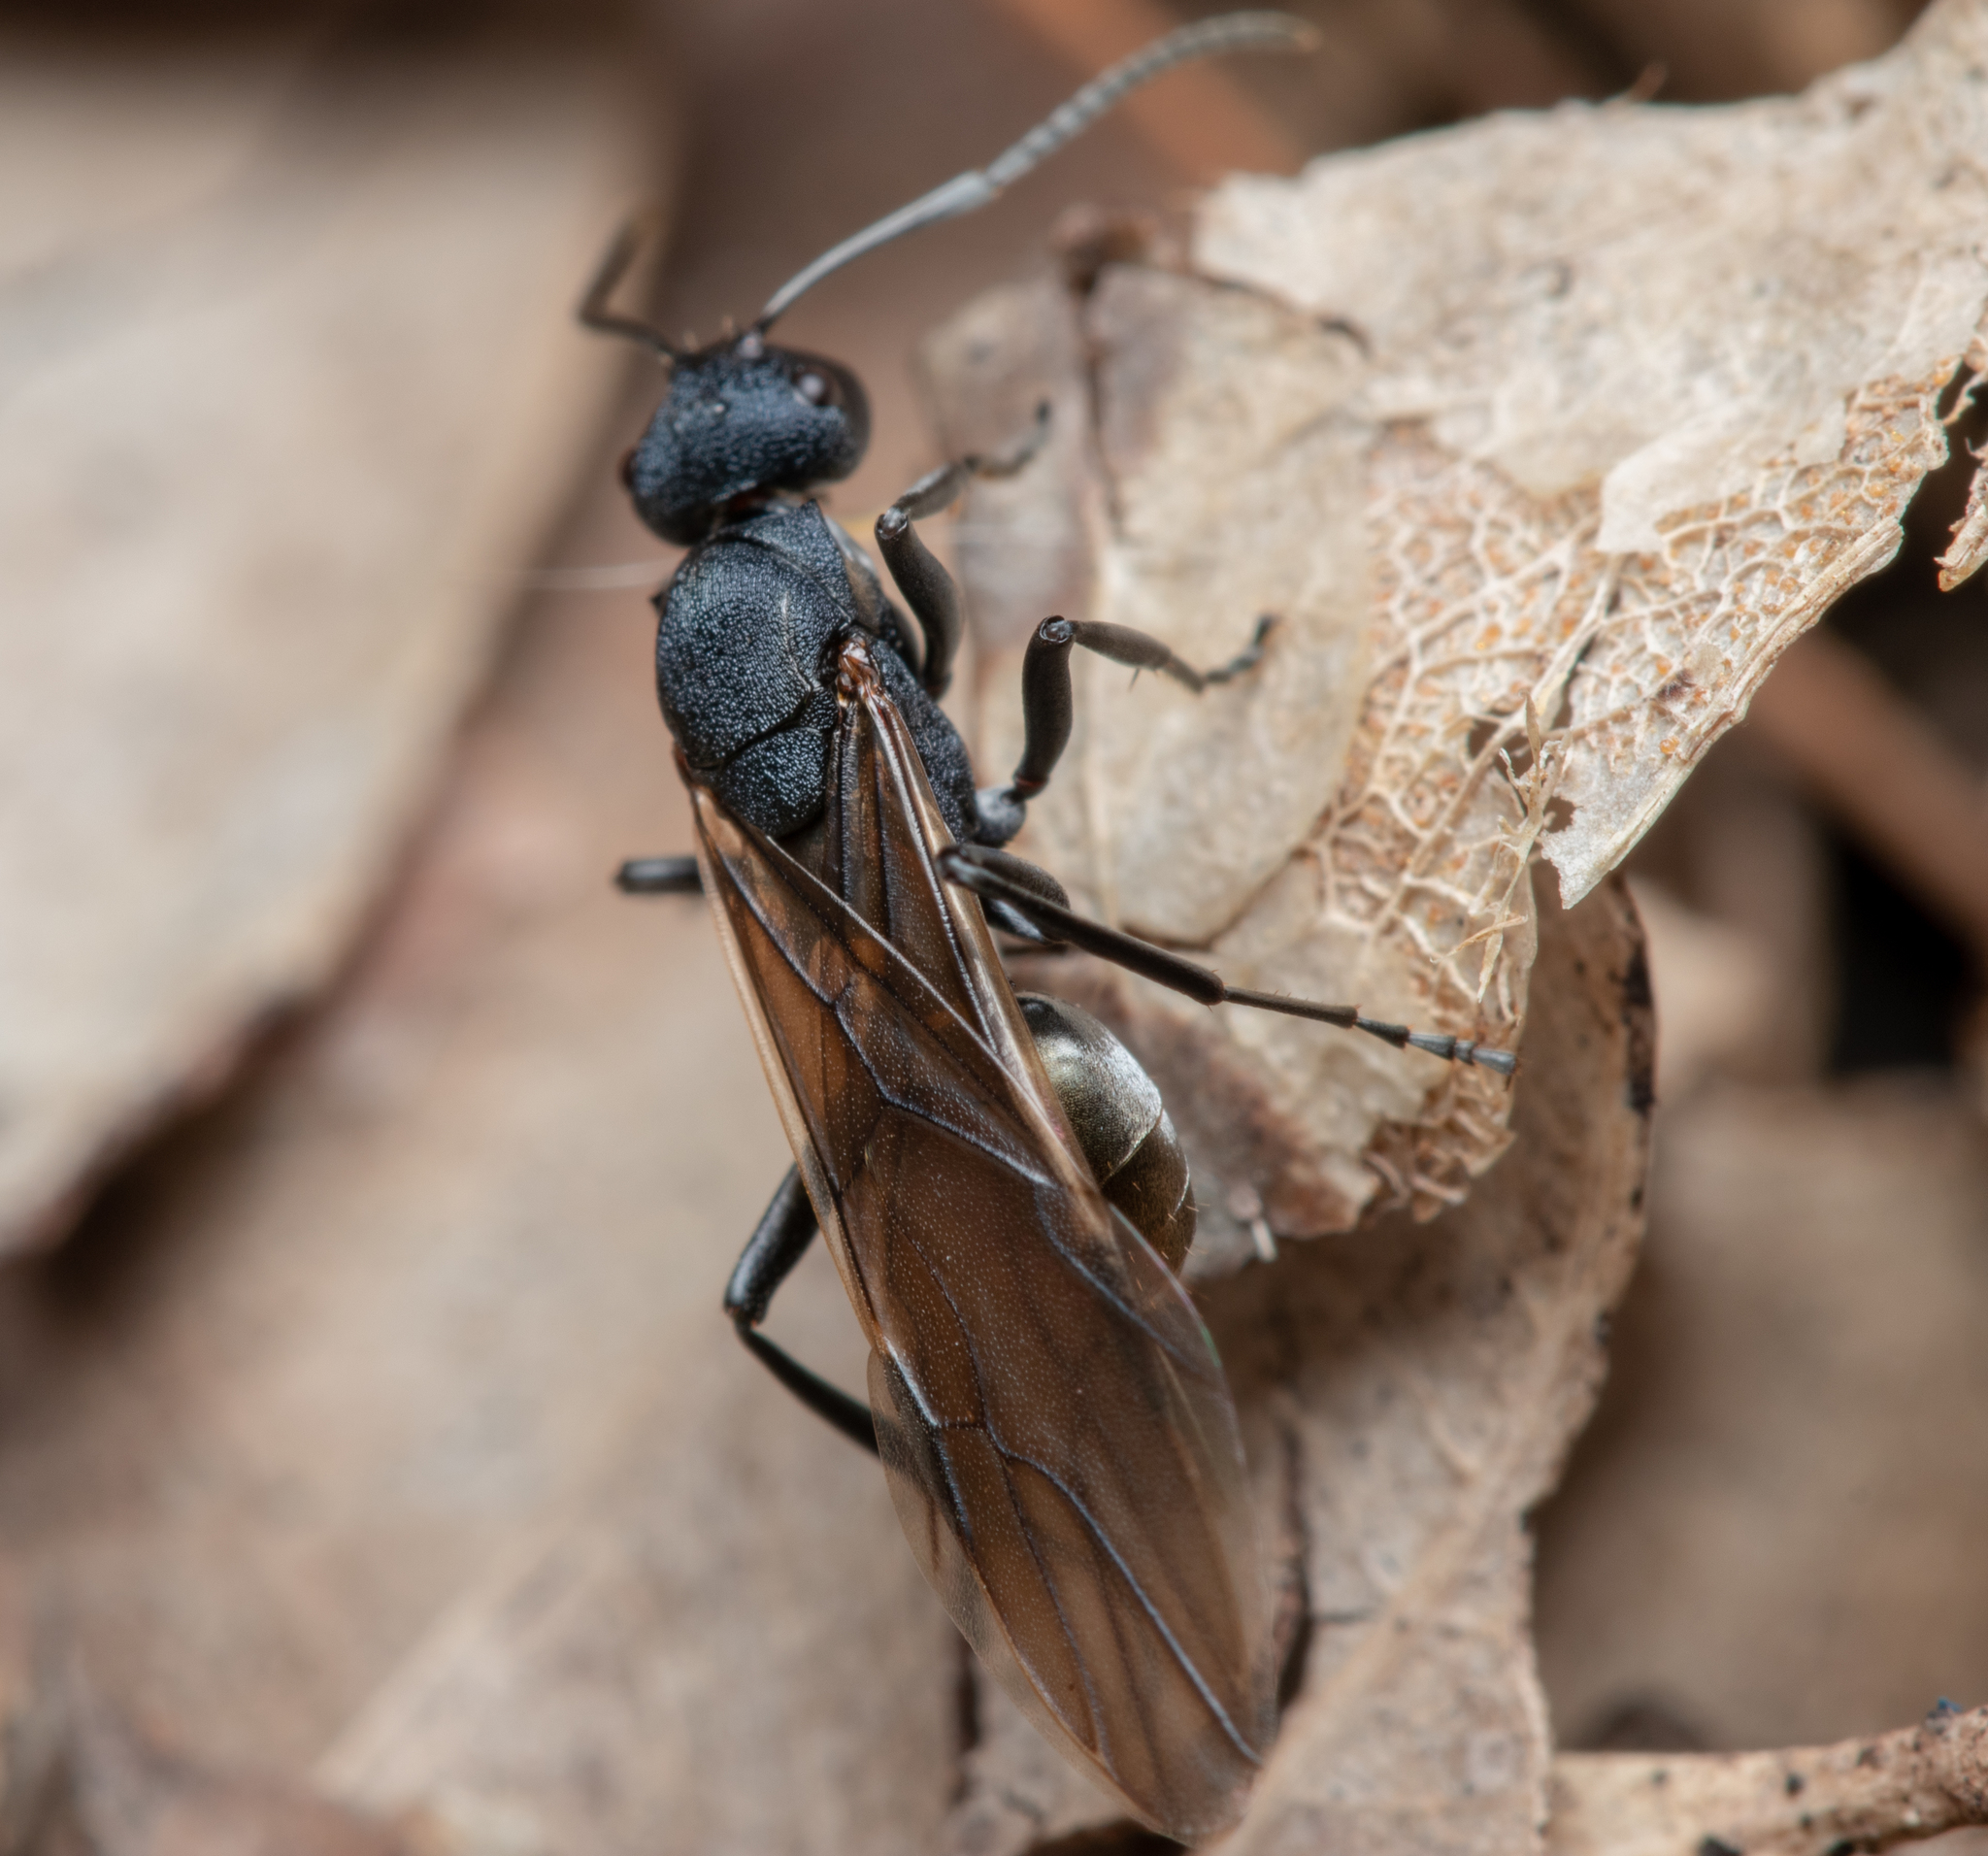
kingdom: Animalia
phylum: Arthropoda
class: Insecta
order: Hymenoptera
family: Formicidae
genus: Polyrhachis
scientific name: Polyrhachis euterpe
